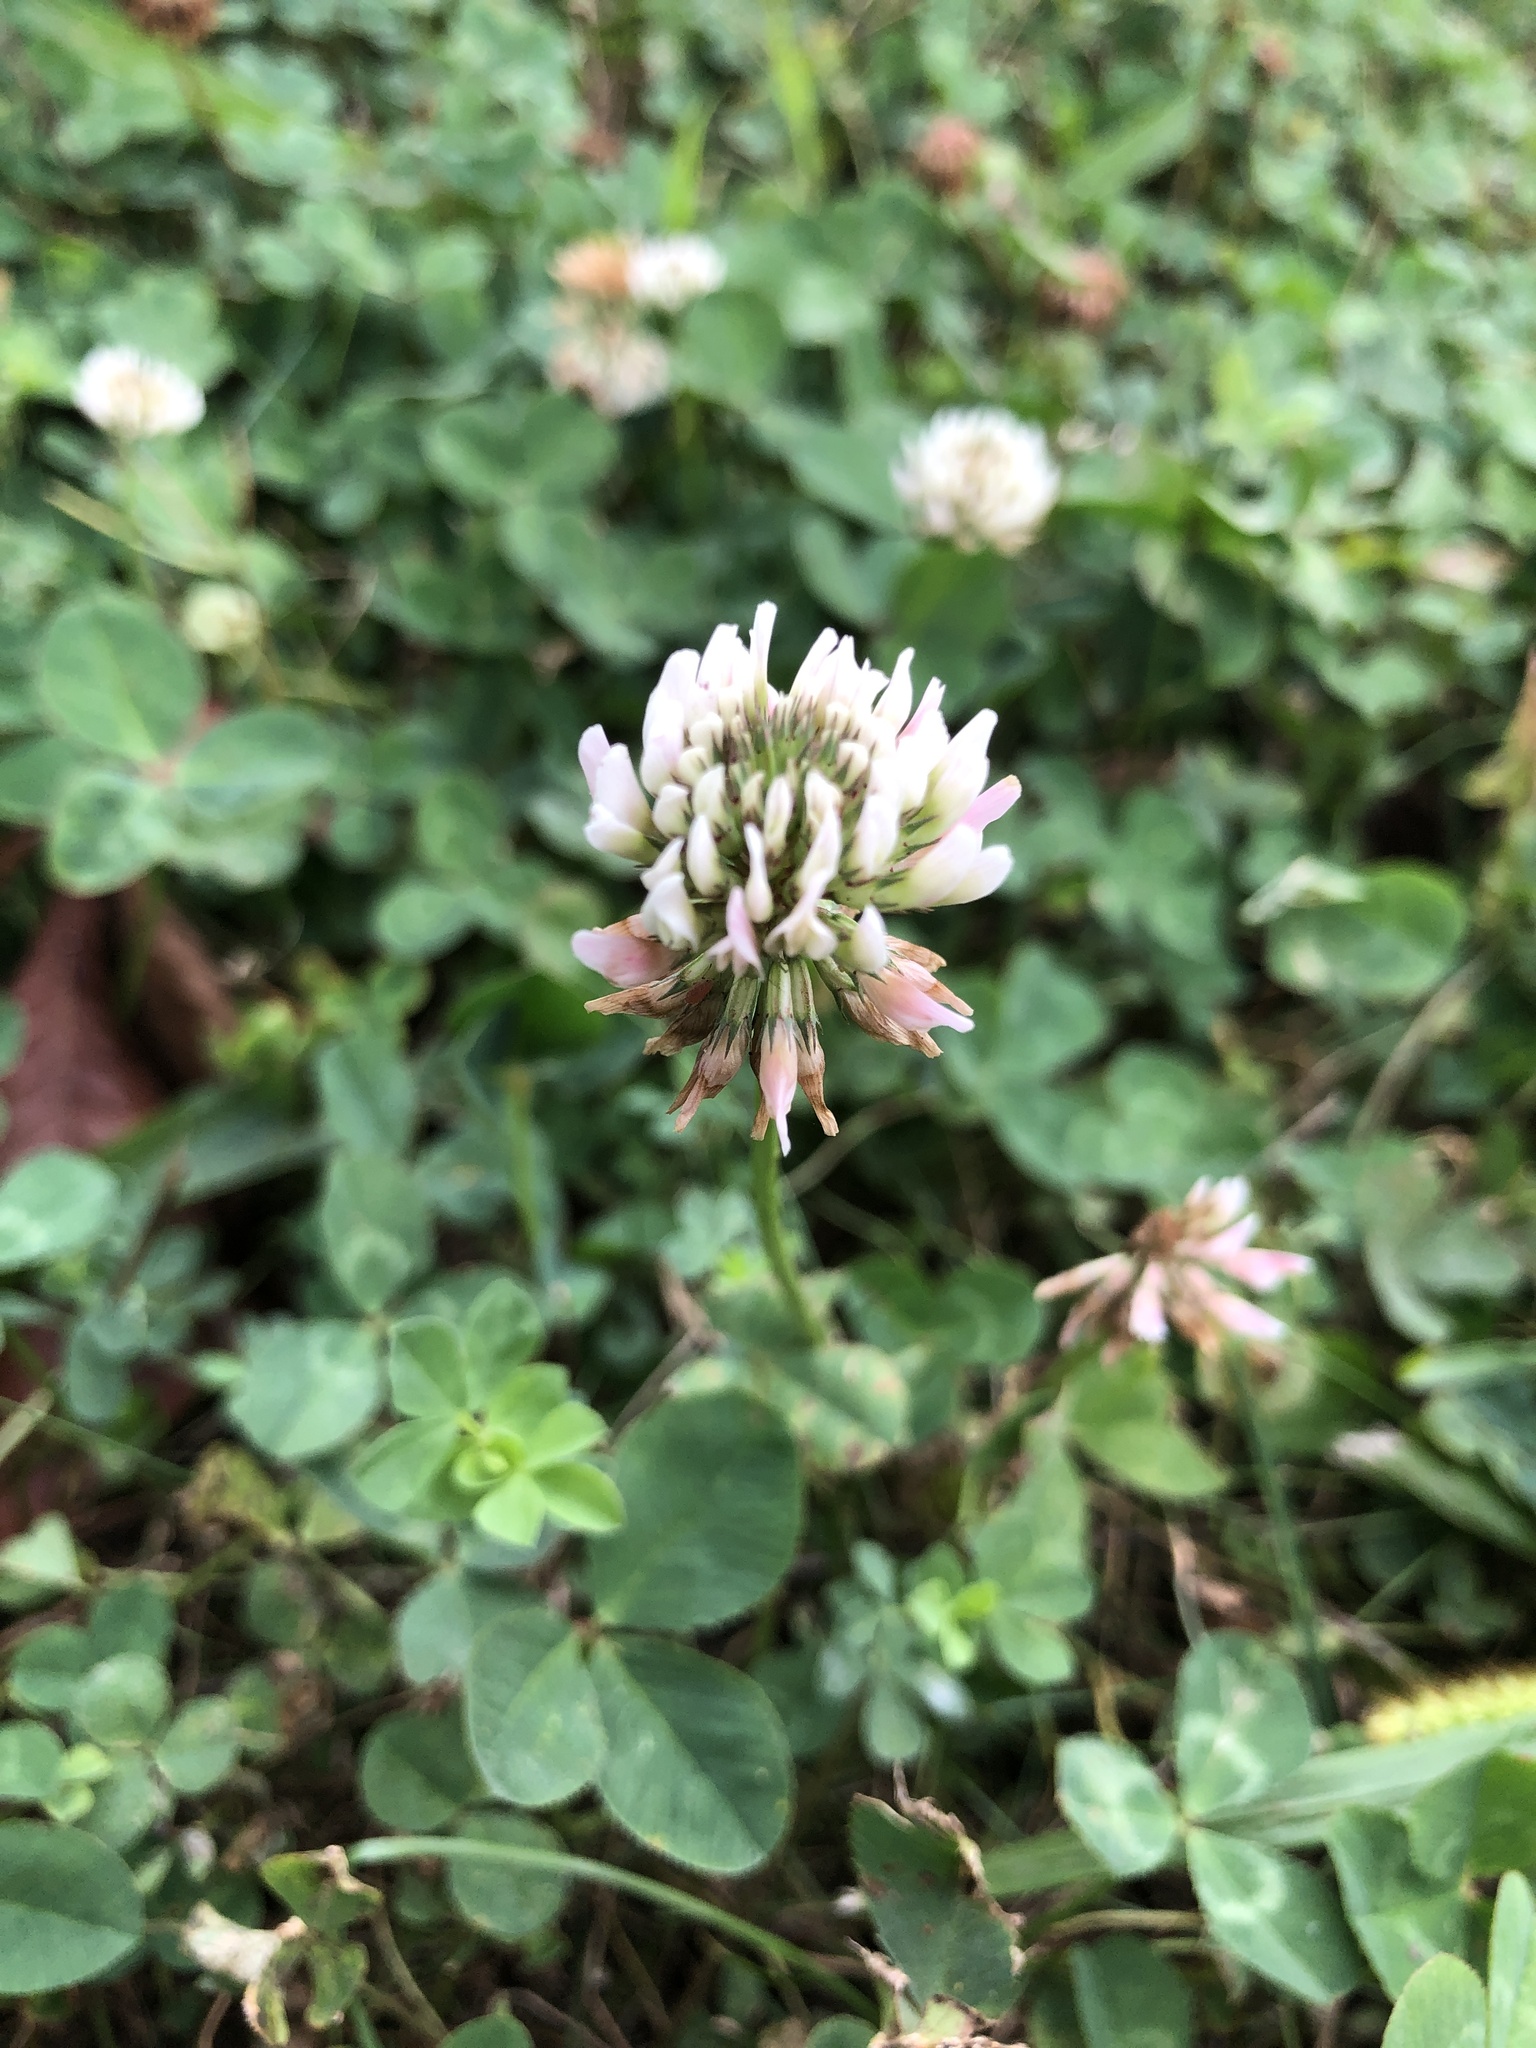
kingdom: Plantae
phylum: Tracheophyta
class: Magnoliopsida
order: Fabales
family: Fabaceae
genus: Trifolium
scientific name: Trifolium repens
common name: White clover
